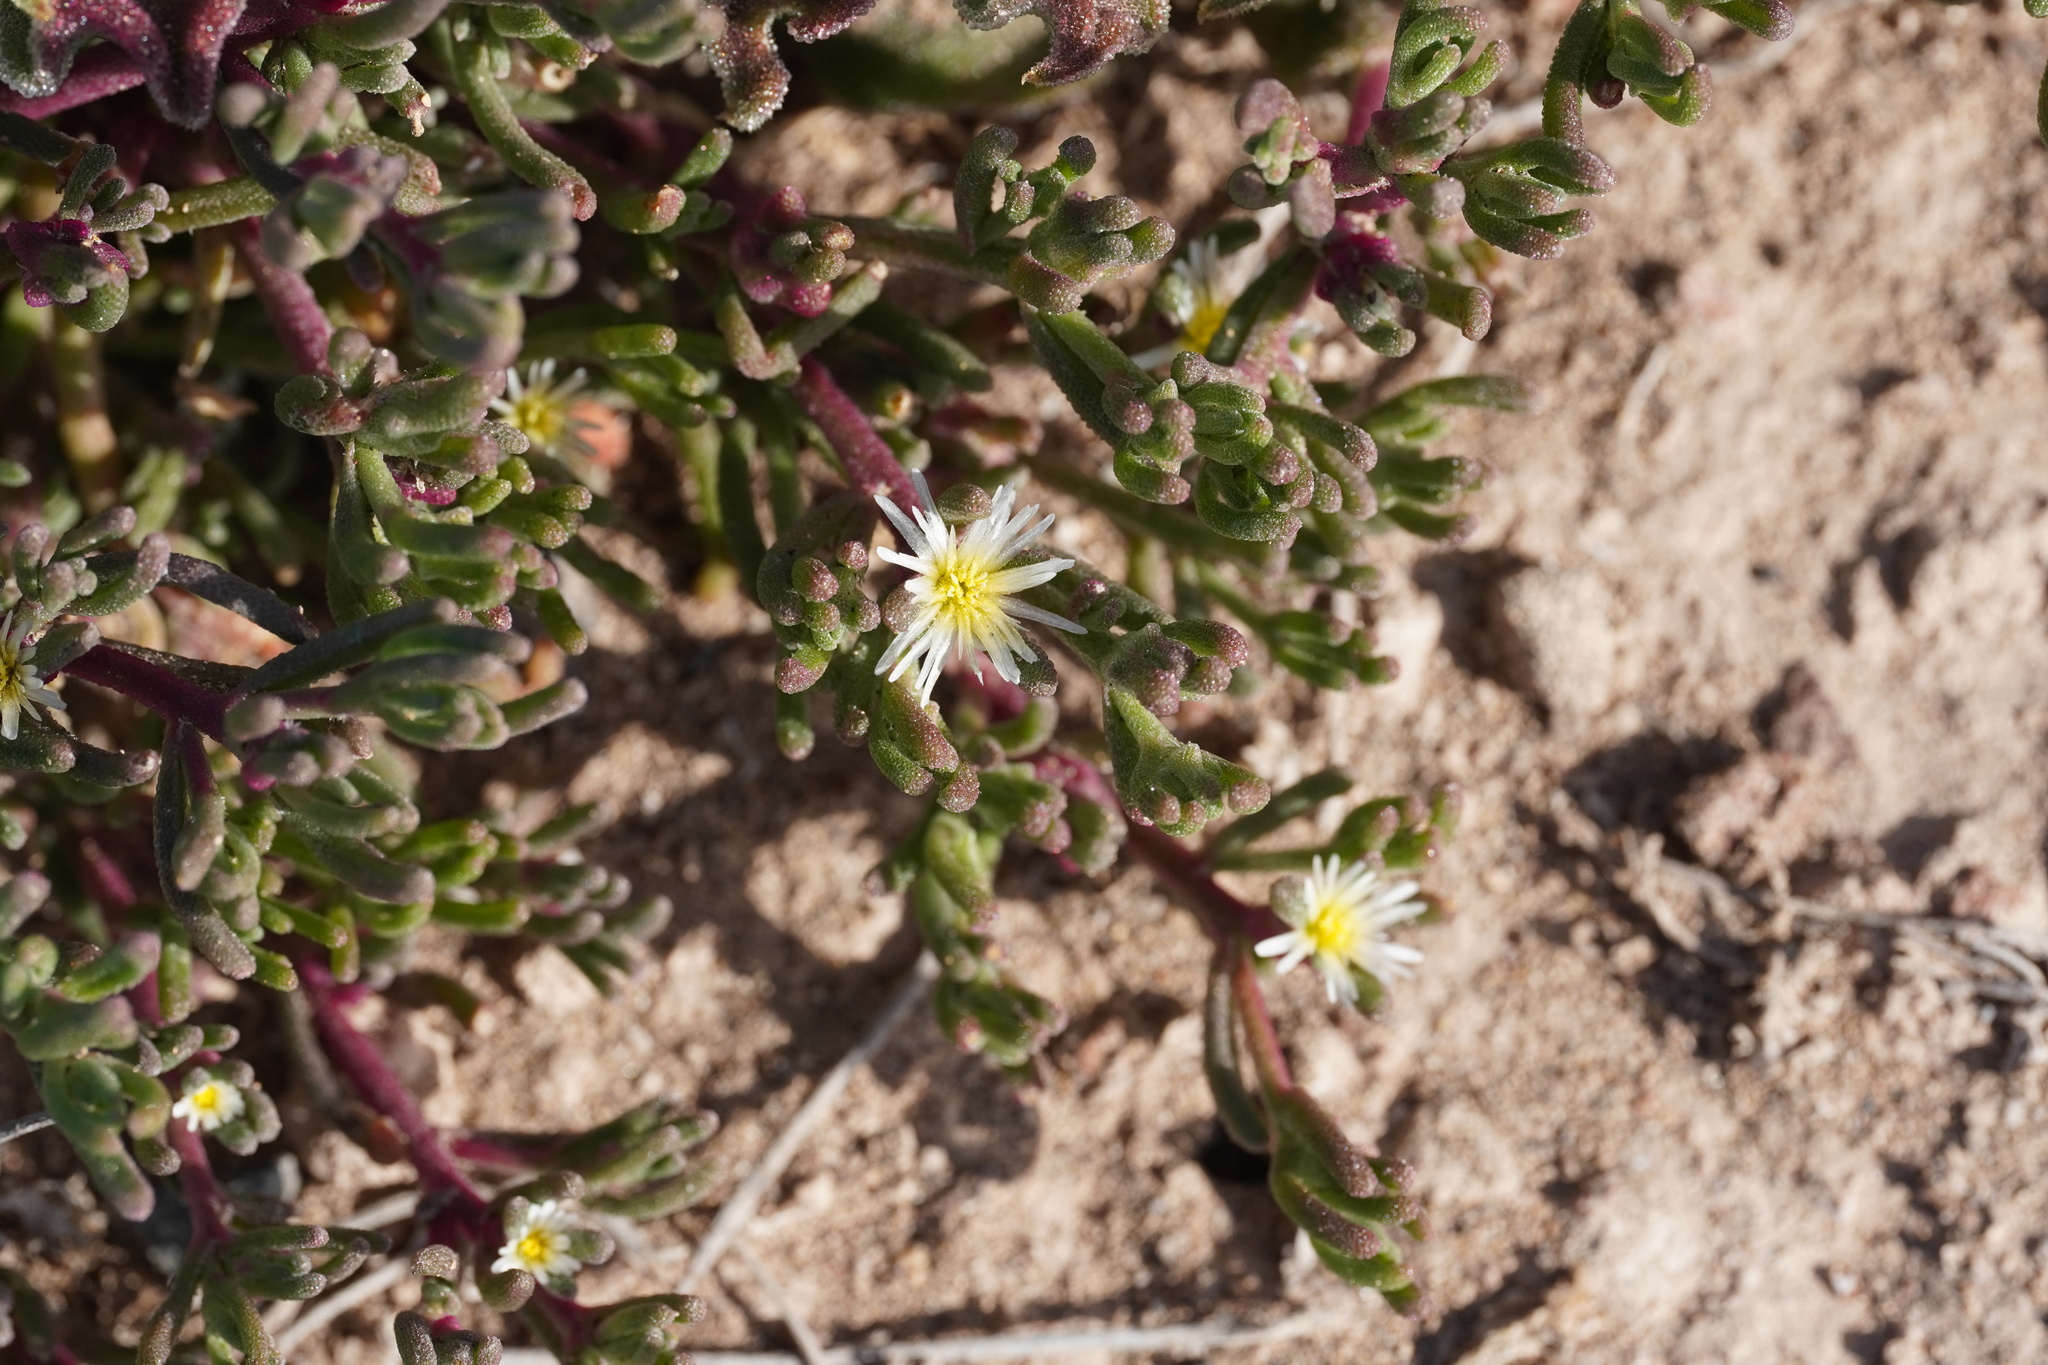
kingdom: Plantae
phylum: Tracheophyta
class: Magnoliopsida
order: Caryophyllales
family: Aizoaceae
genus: Mesembryanthemum
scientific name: Mesembryanthemum nodiflorum
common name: Slenderleaf iceplant
